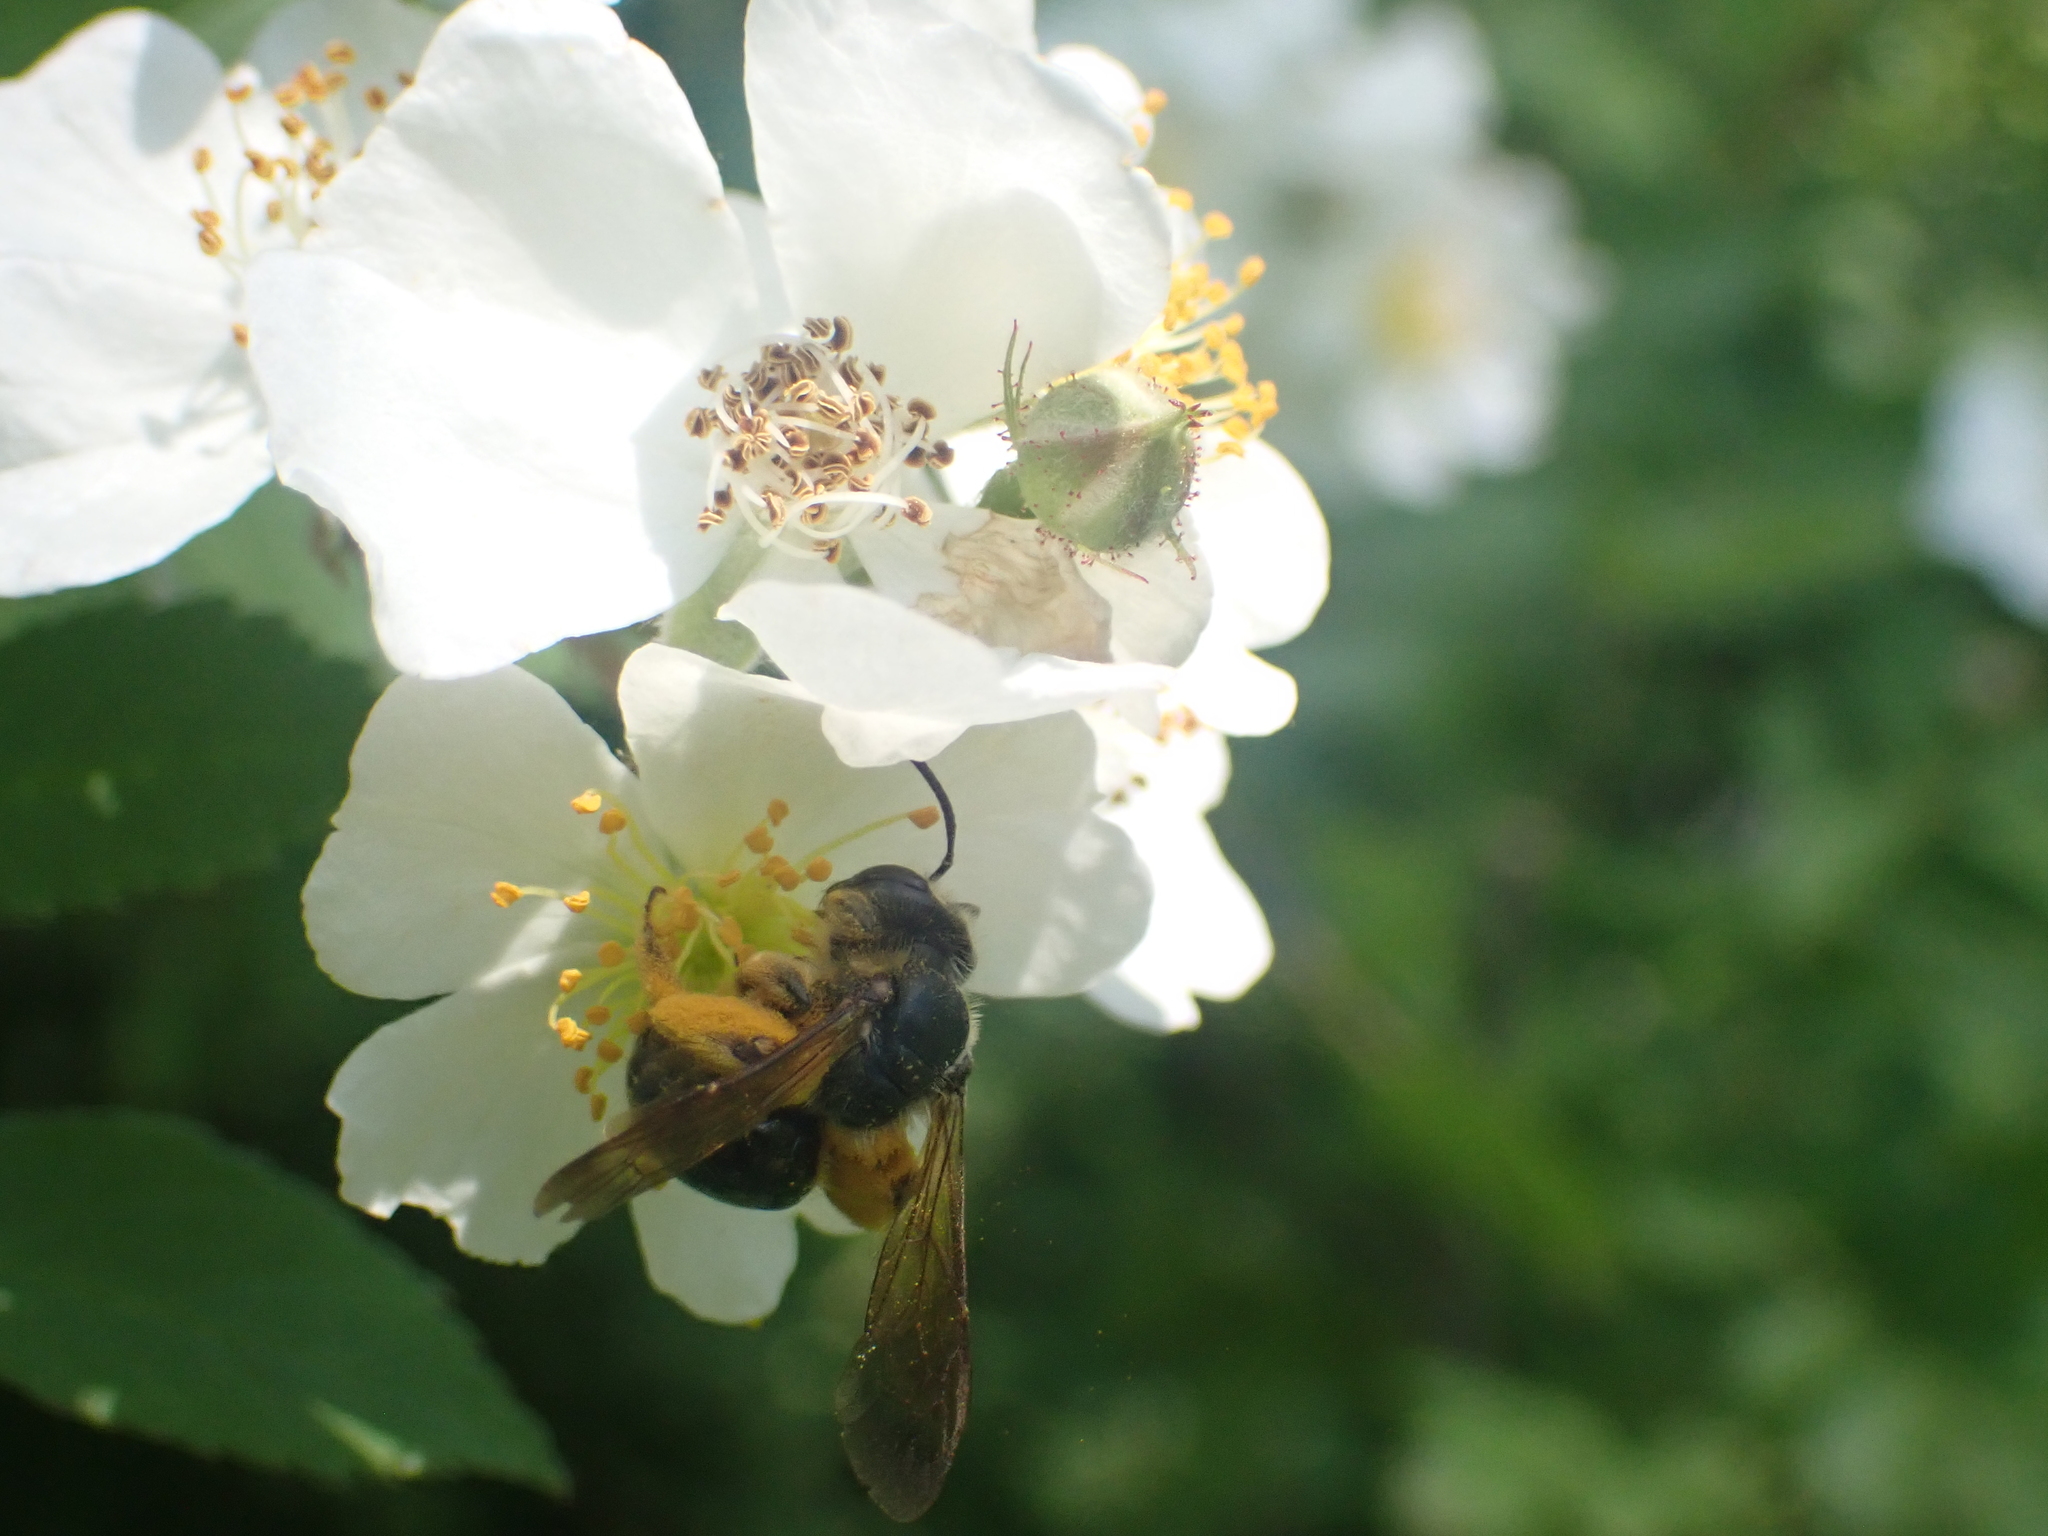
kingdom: Animalia
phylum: Arthropoda
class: Insecta
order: Hymenoptera
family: Andrenidae
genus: Andrena
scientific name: Andrena crataegi
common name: Hawthorn mining bee
